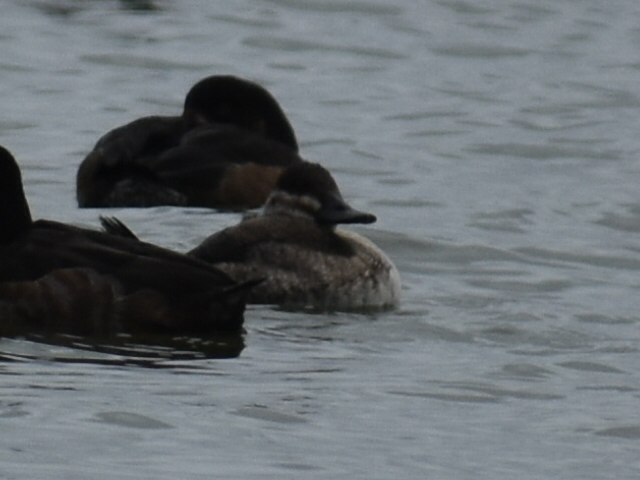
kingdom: Animalia
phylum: Chordata
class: Aves
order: Anseriformes
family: Anatidae
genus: Oxyura
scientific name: Oxyura jamaicensis
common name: Ruddy duck
